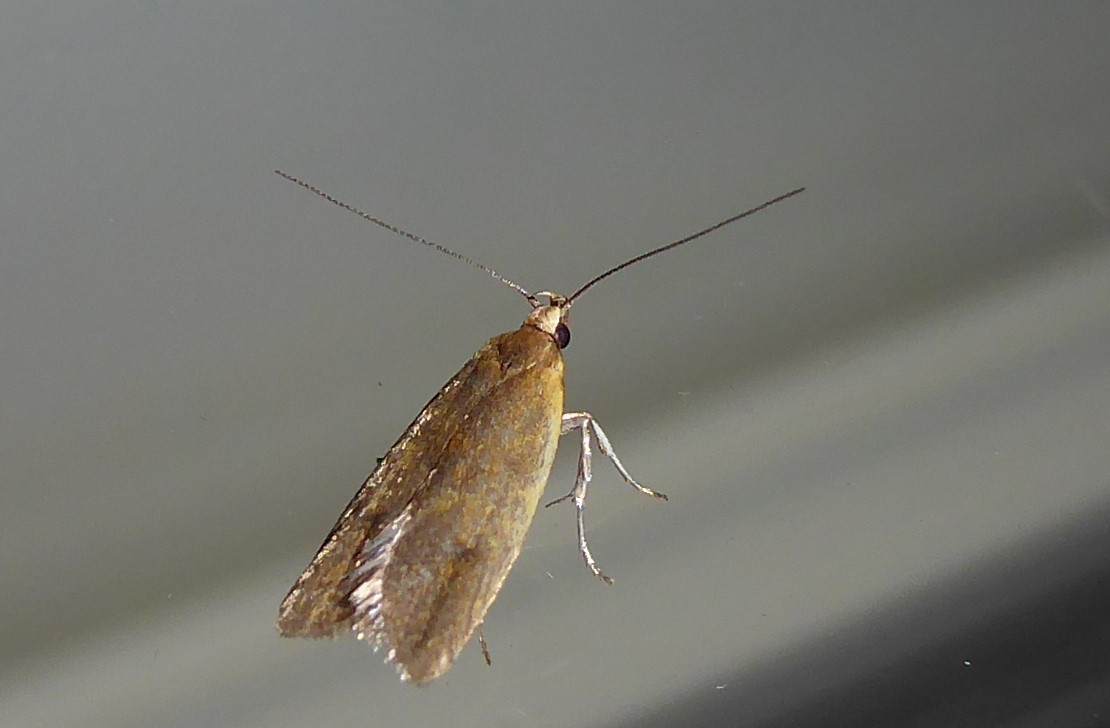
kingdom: Animalia
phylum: Arthropoda
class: Insecta
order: Lepidoptera
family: Oecophoridae
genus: Gymnobathra
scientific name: Gymnobathra parca
